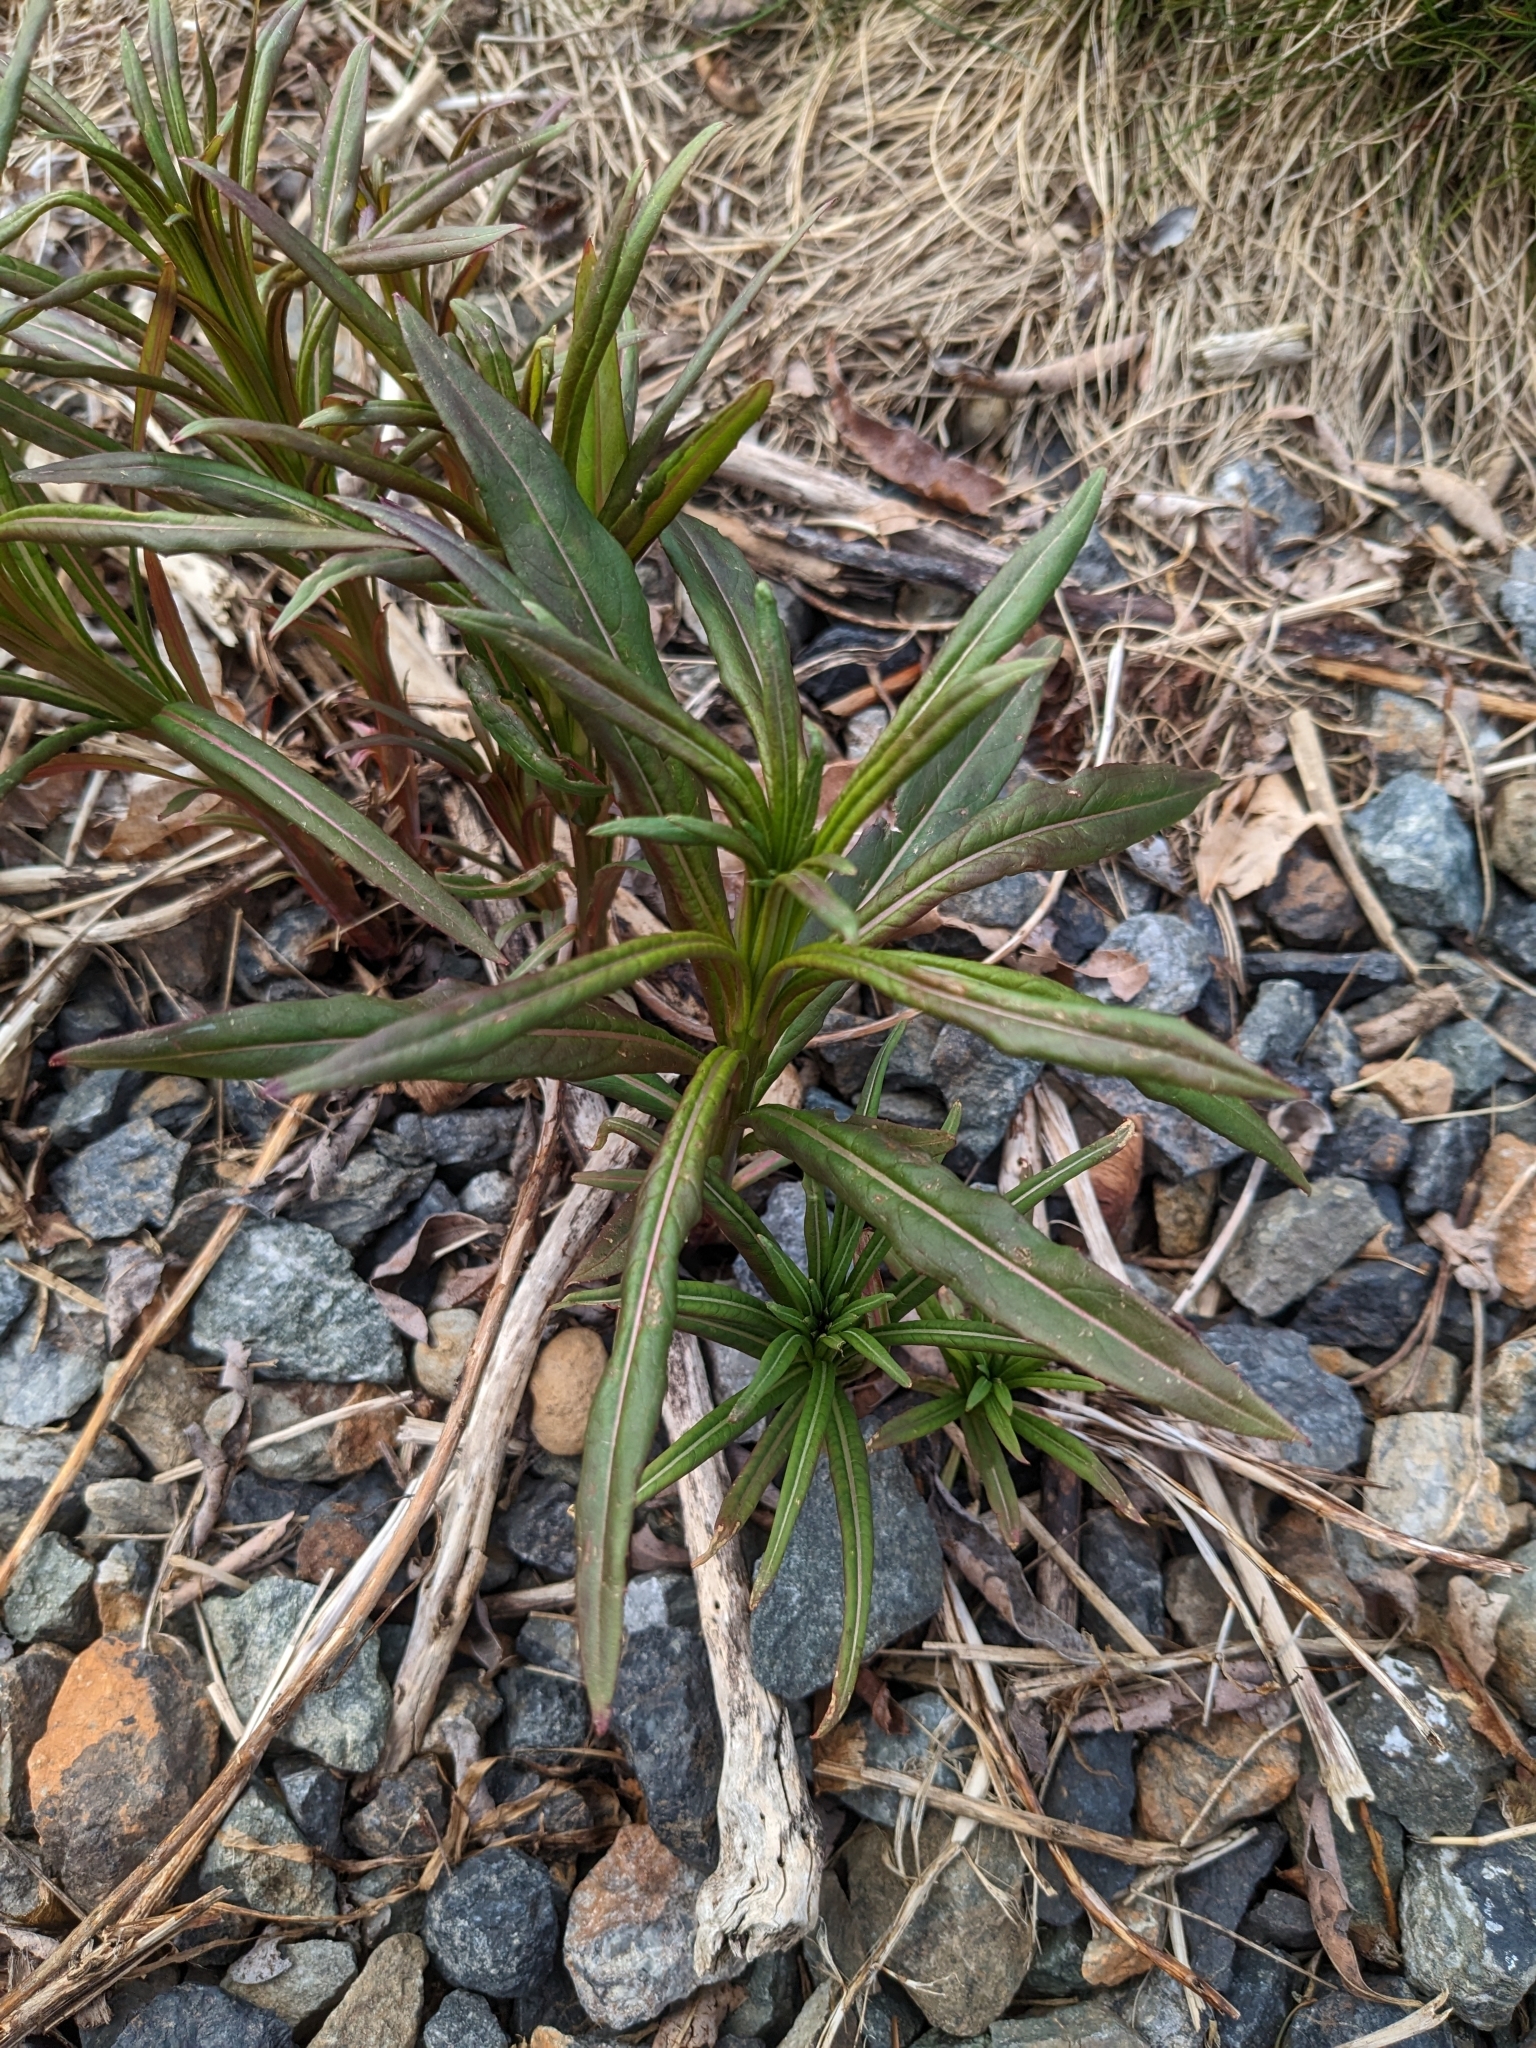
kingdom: Plantae
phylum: Tracheophyta
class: Magnoliopsida
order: Myrtales
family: Onagraceae
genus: Chamaenerion
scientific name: Chamaenerion angustifolium
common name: Fireweed
